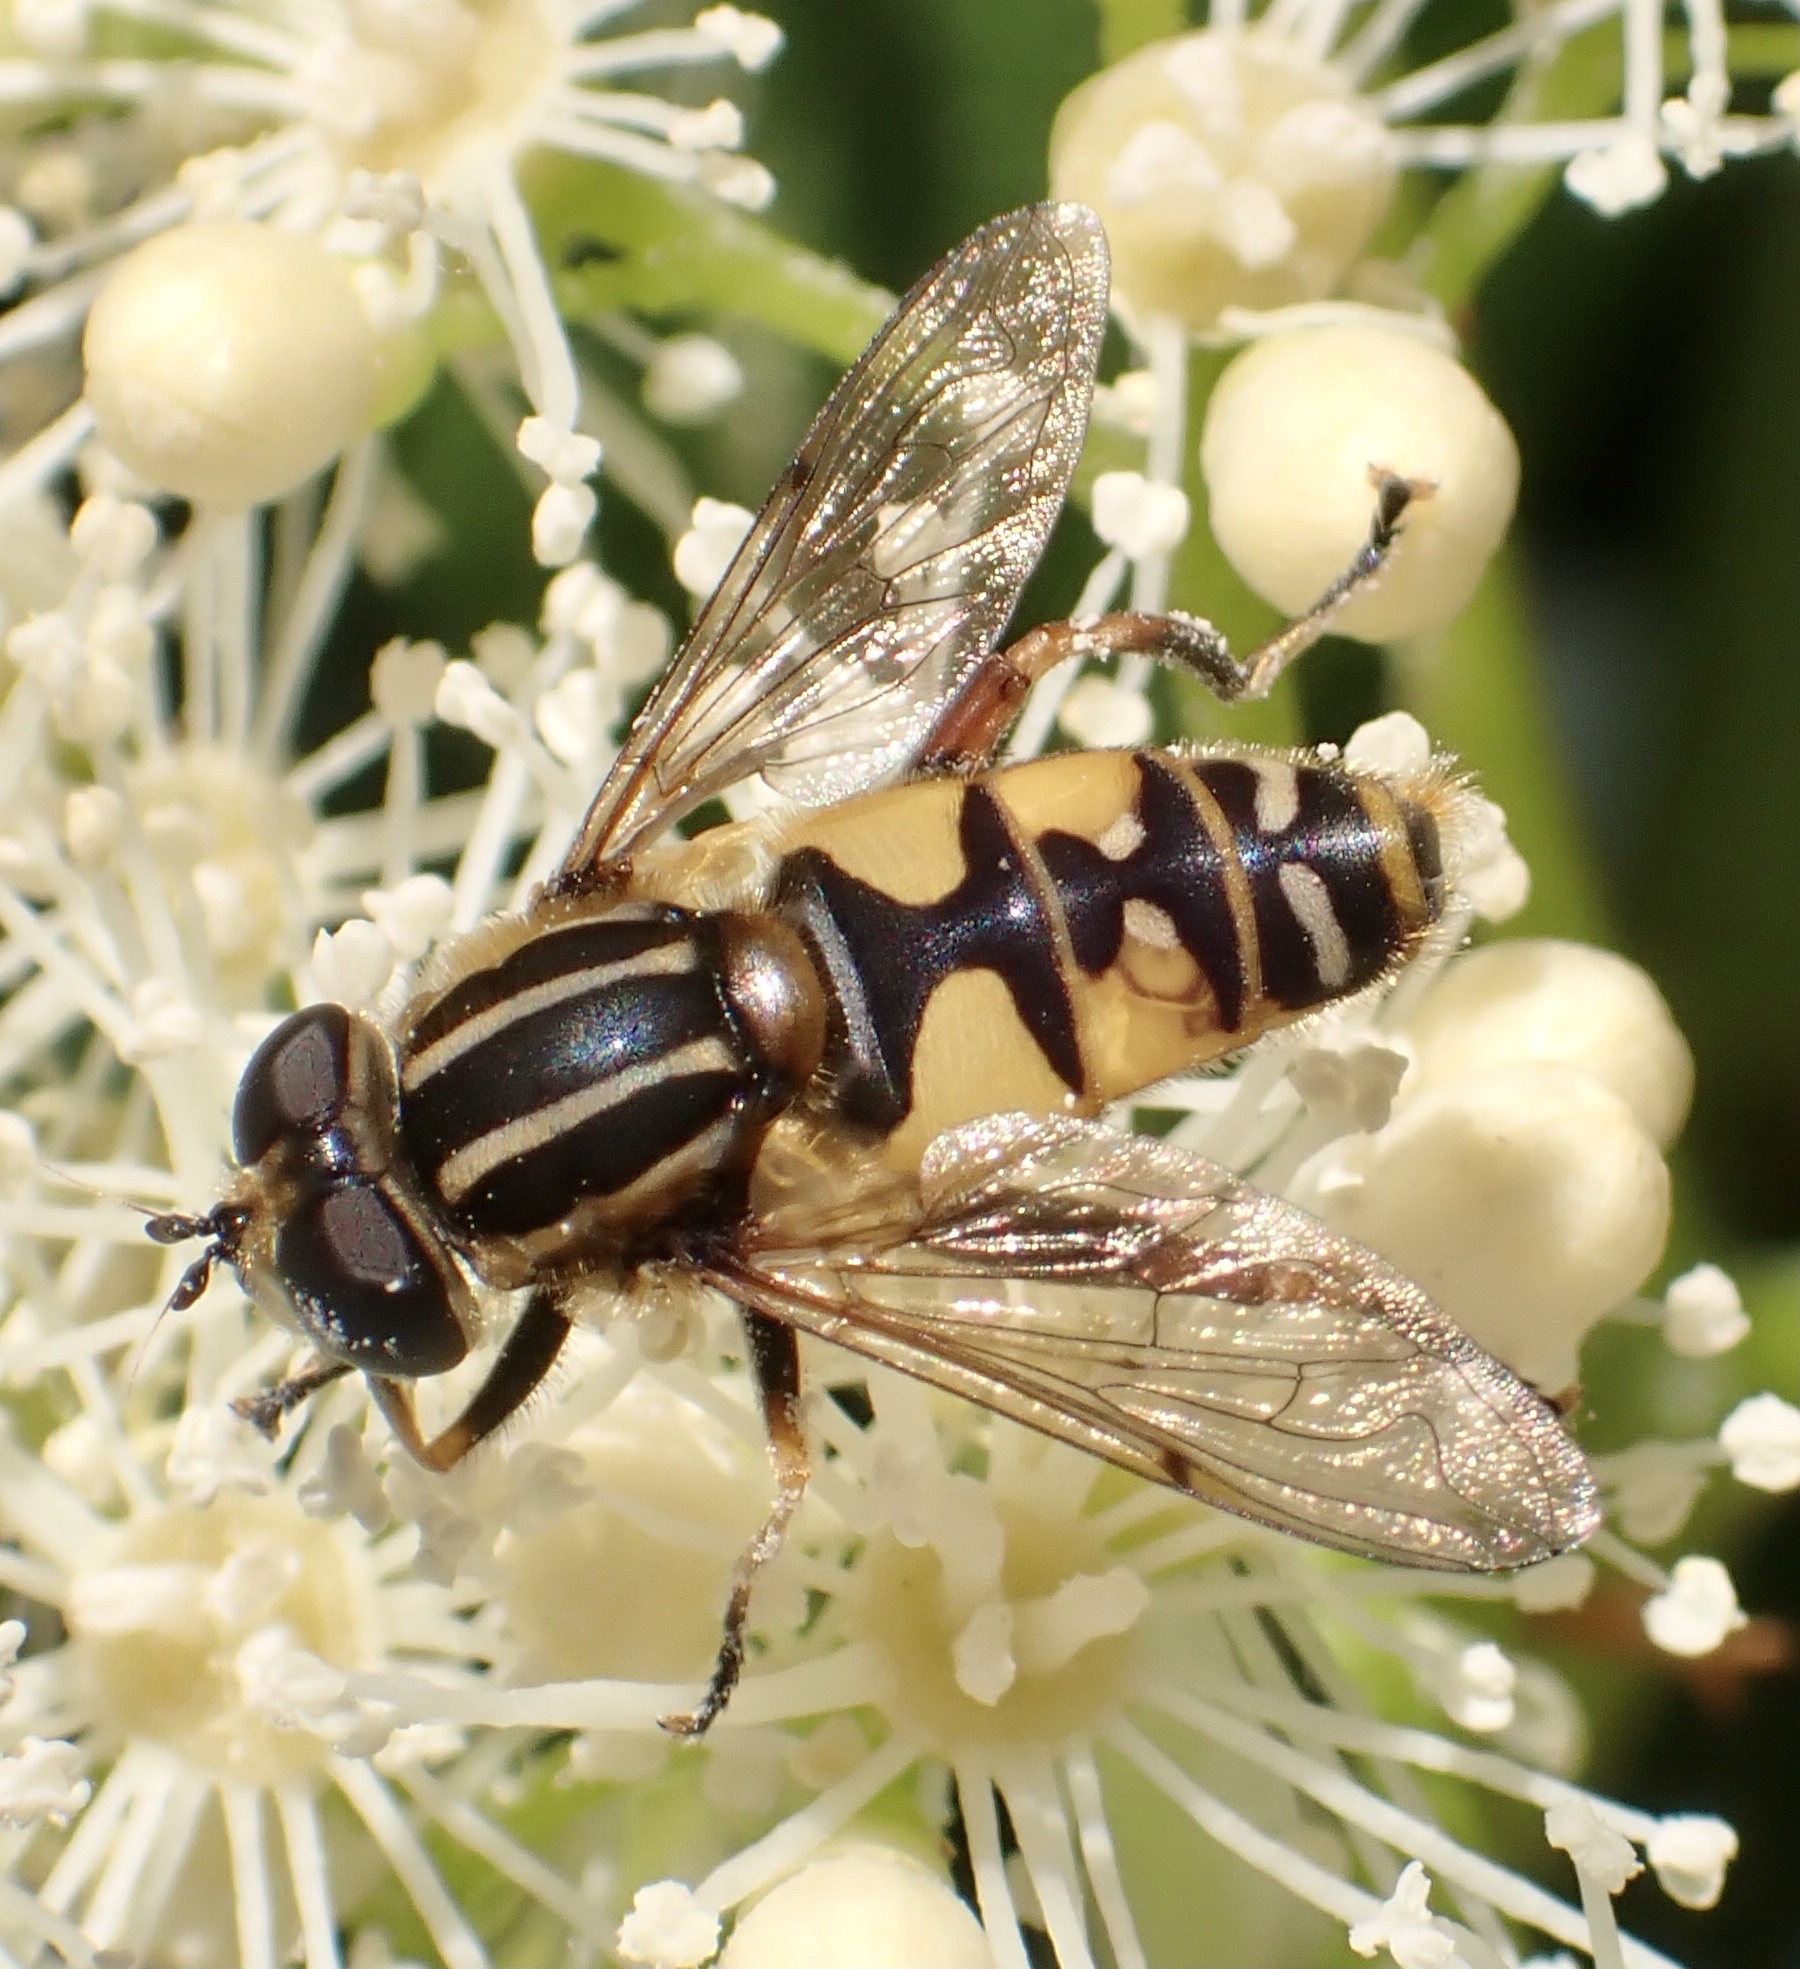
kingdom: Animalia
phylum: Arthropoda
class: Insecta
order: Diptera
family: Syrphidae
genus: Helophilus
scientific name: Helophilus pendulus
